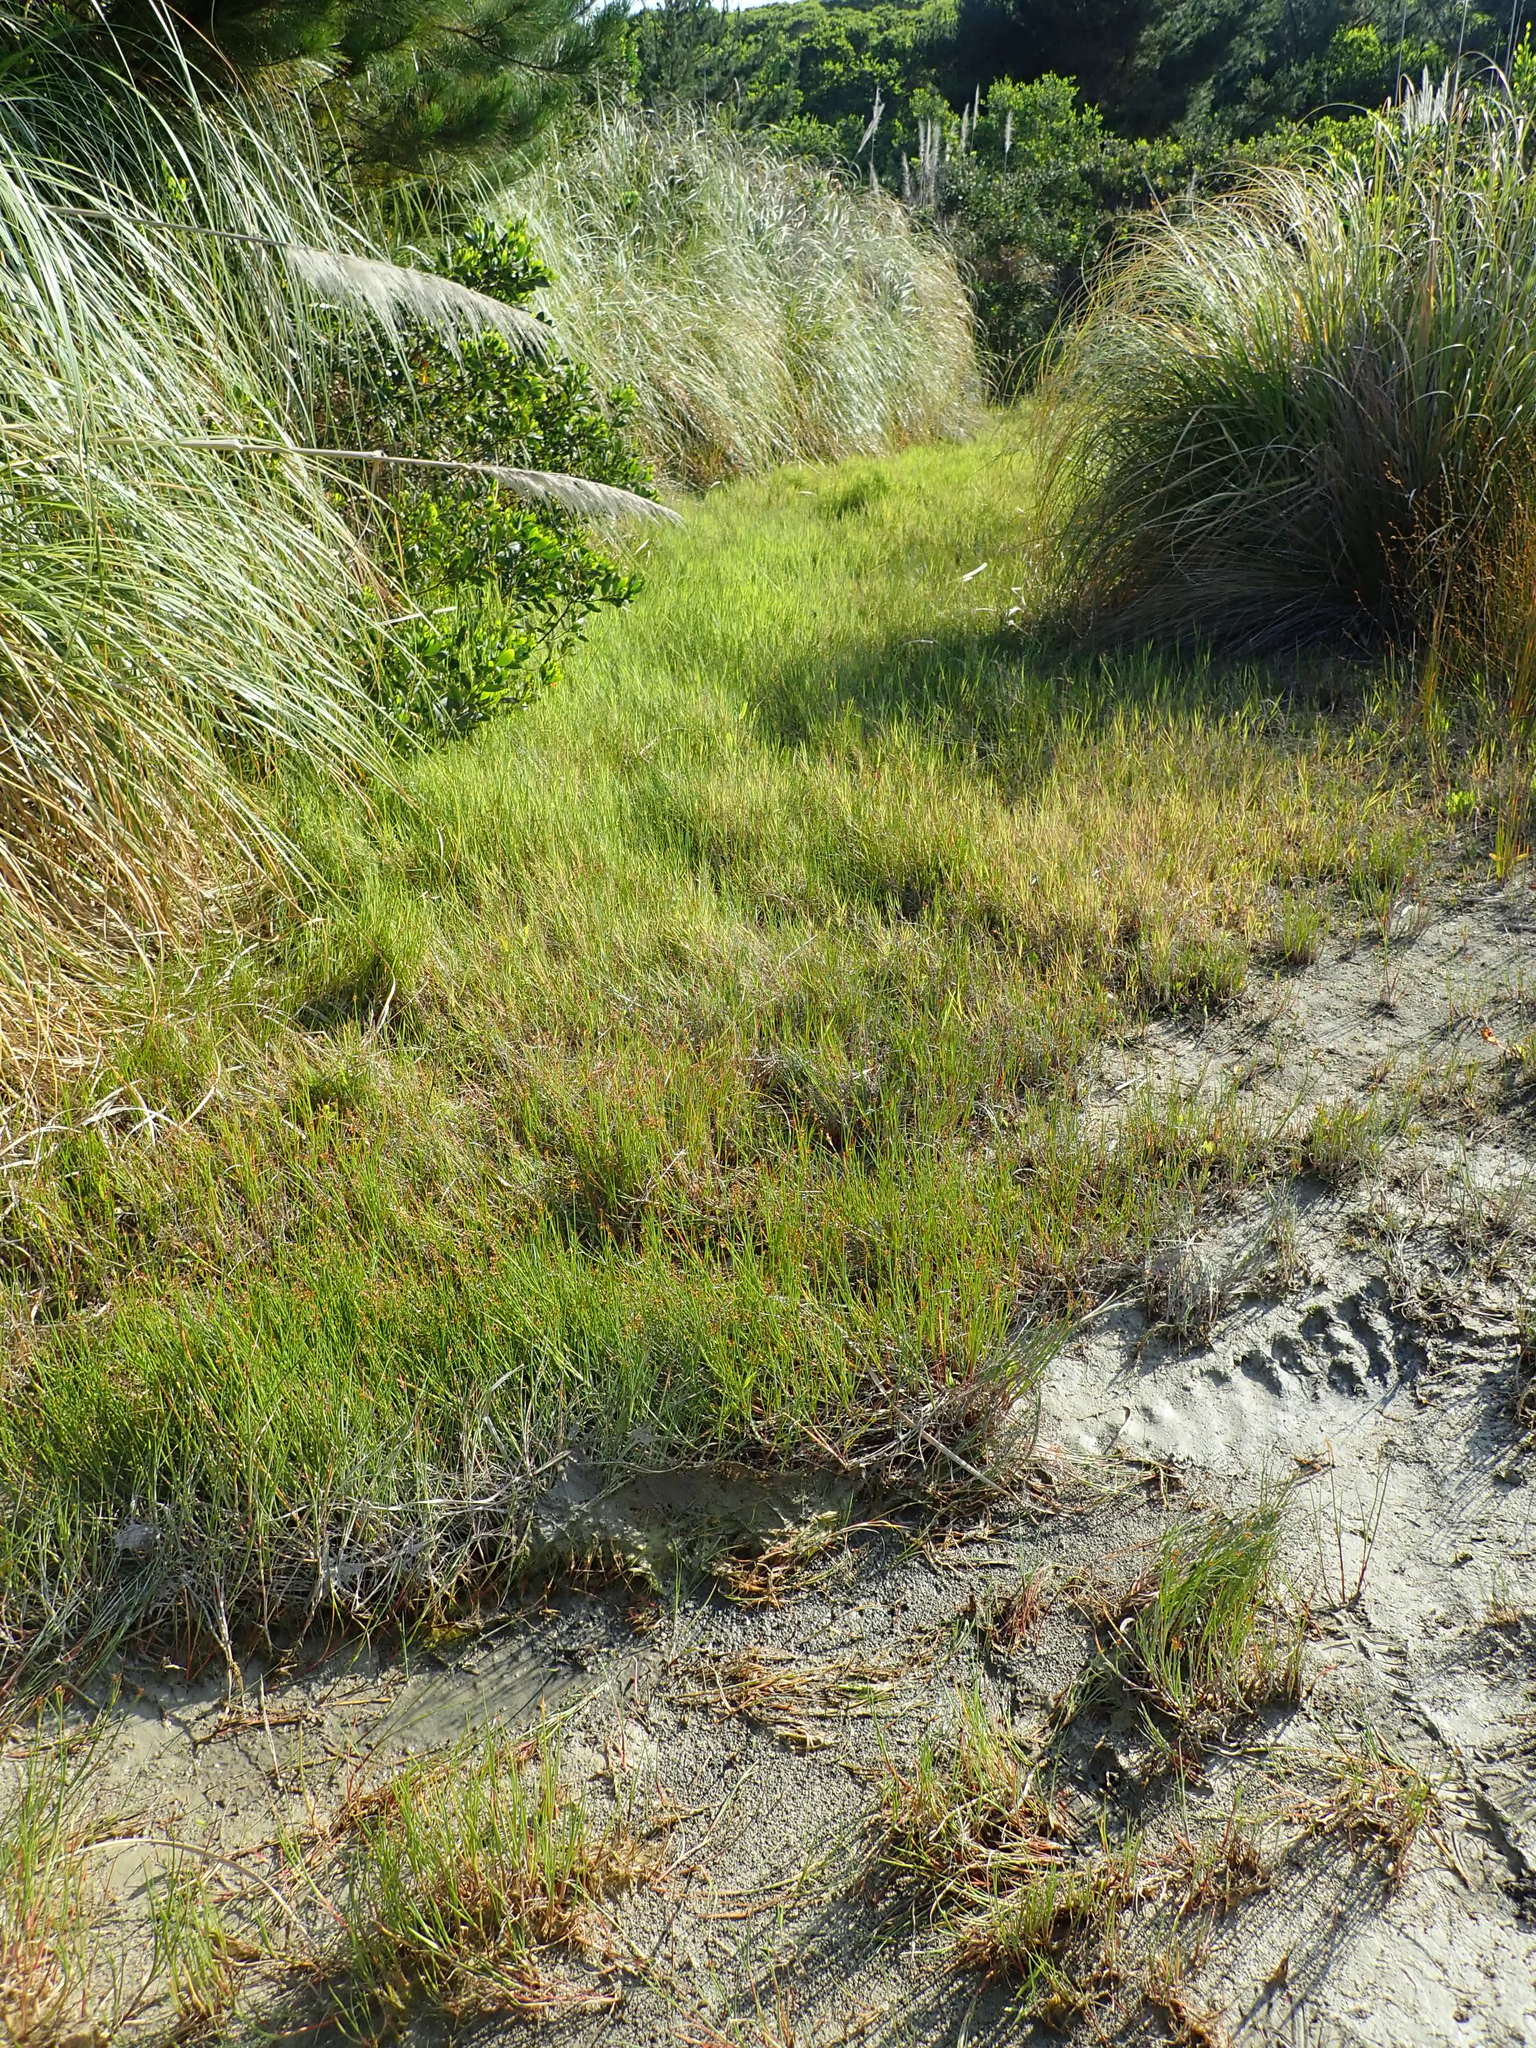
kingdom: Plantae
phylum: Tracheophyta
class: Liliopsida
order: Poales
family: Juncaceae
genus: Juncus
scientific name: Juncus articulatus
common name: Jointed rush
